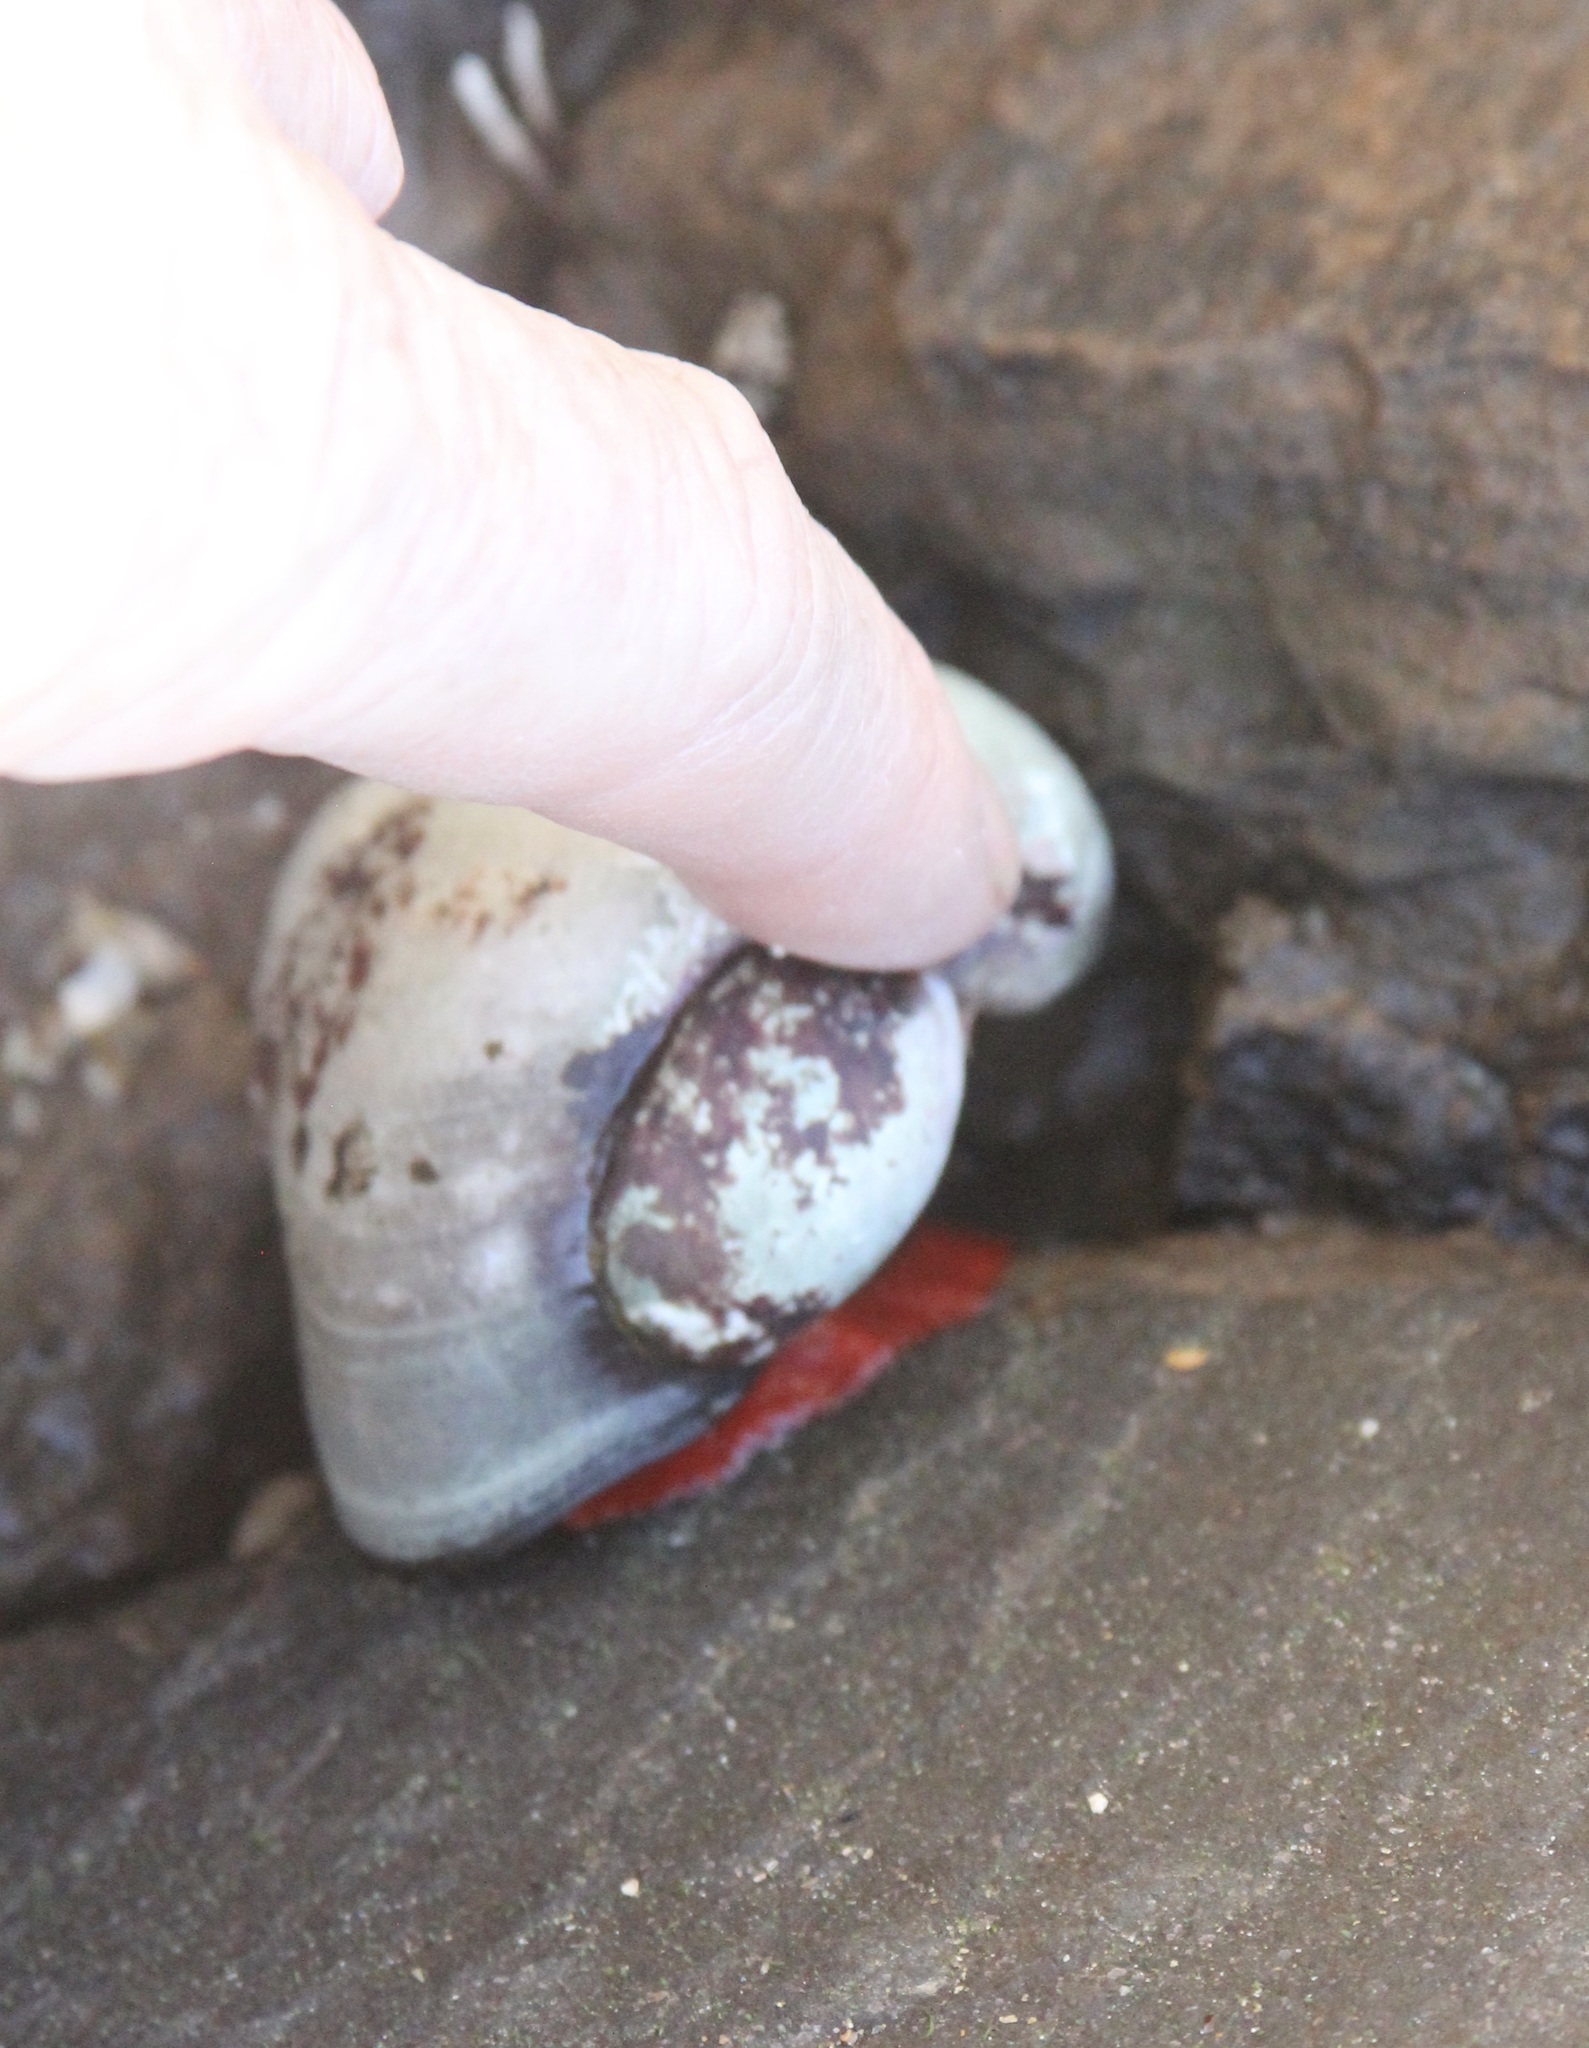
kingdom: Animalia
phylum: Mollusca
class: Gastropoda
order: Trochida
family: Tegulidae
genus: Norrisia
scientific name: Norrisia norrisii
